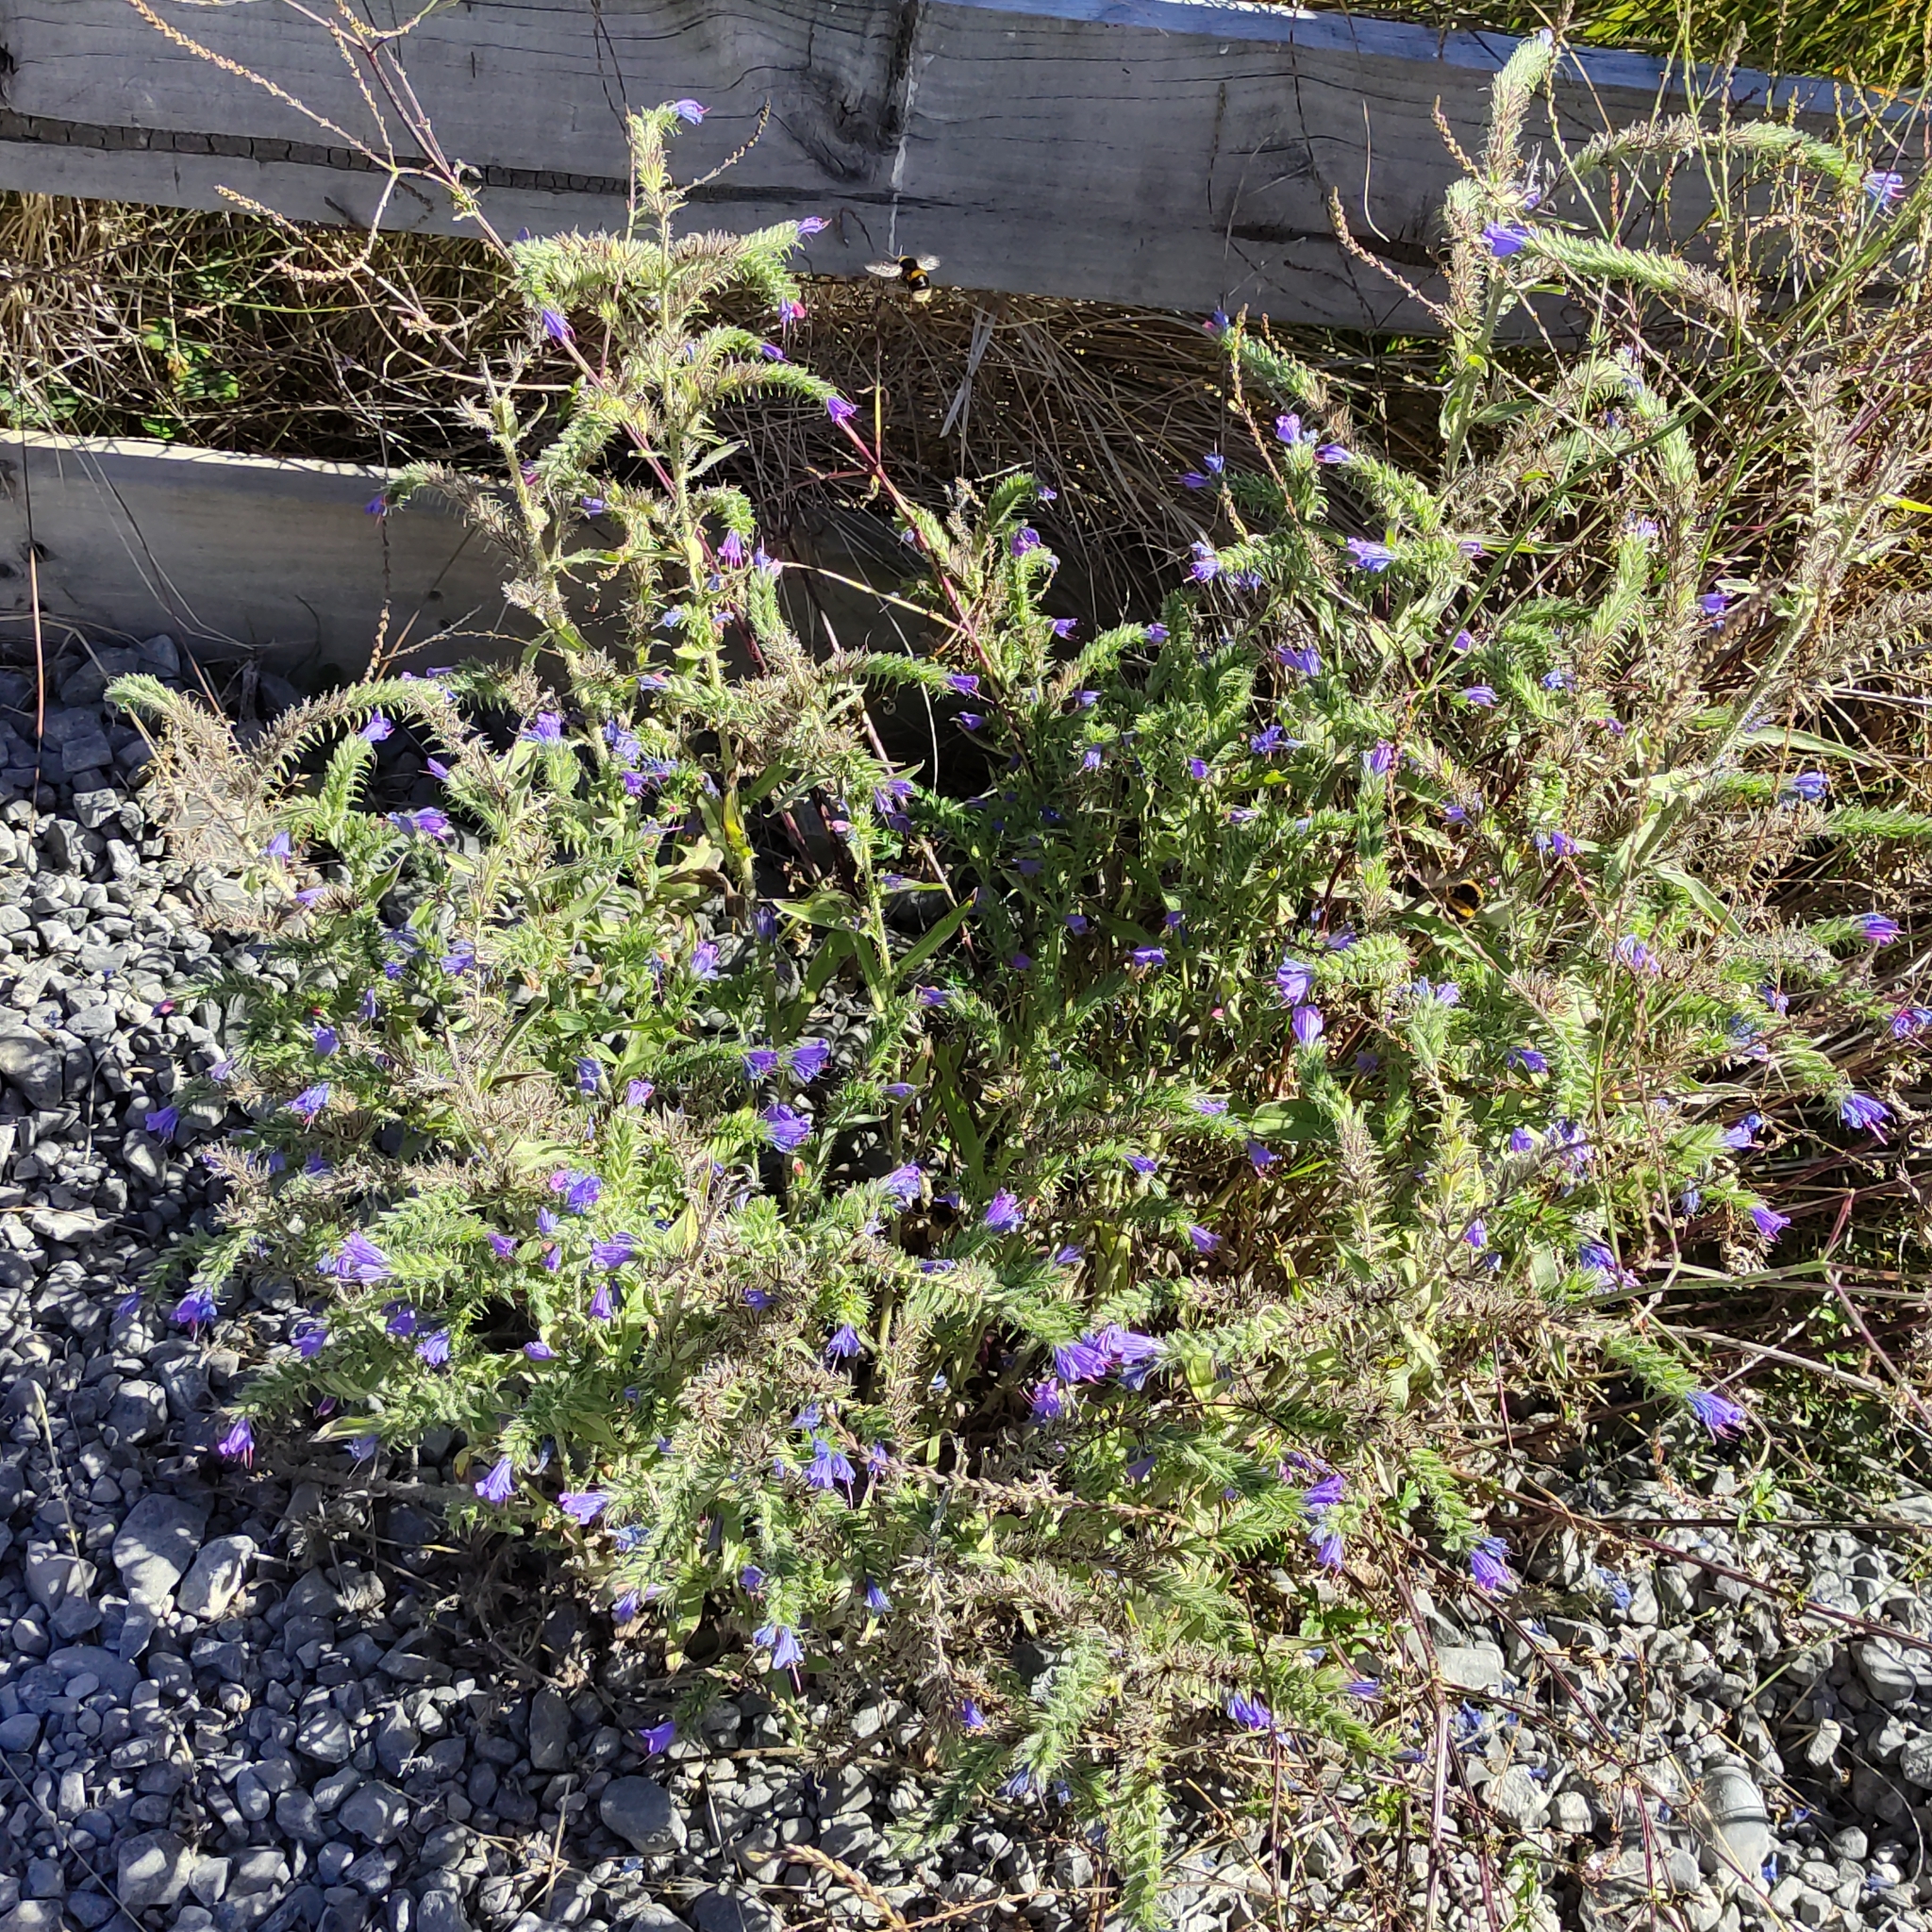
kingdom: Plantae
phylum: Tracheophyta
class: Magnoliopsida
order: Boraginales
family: Boraginaceae
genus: Echium
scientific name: Echium vulgare
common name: Common viper's bugloss
